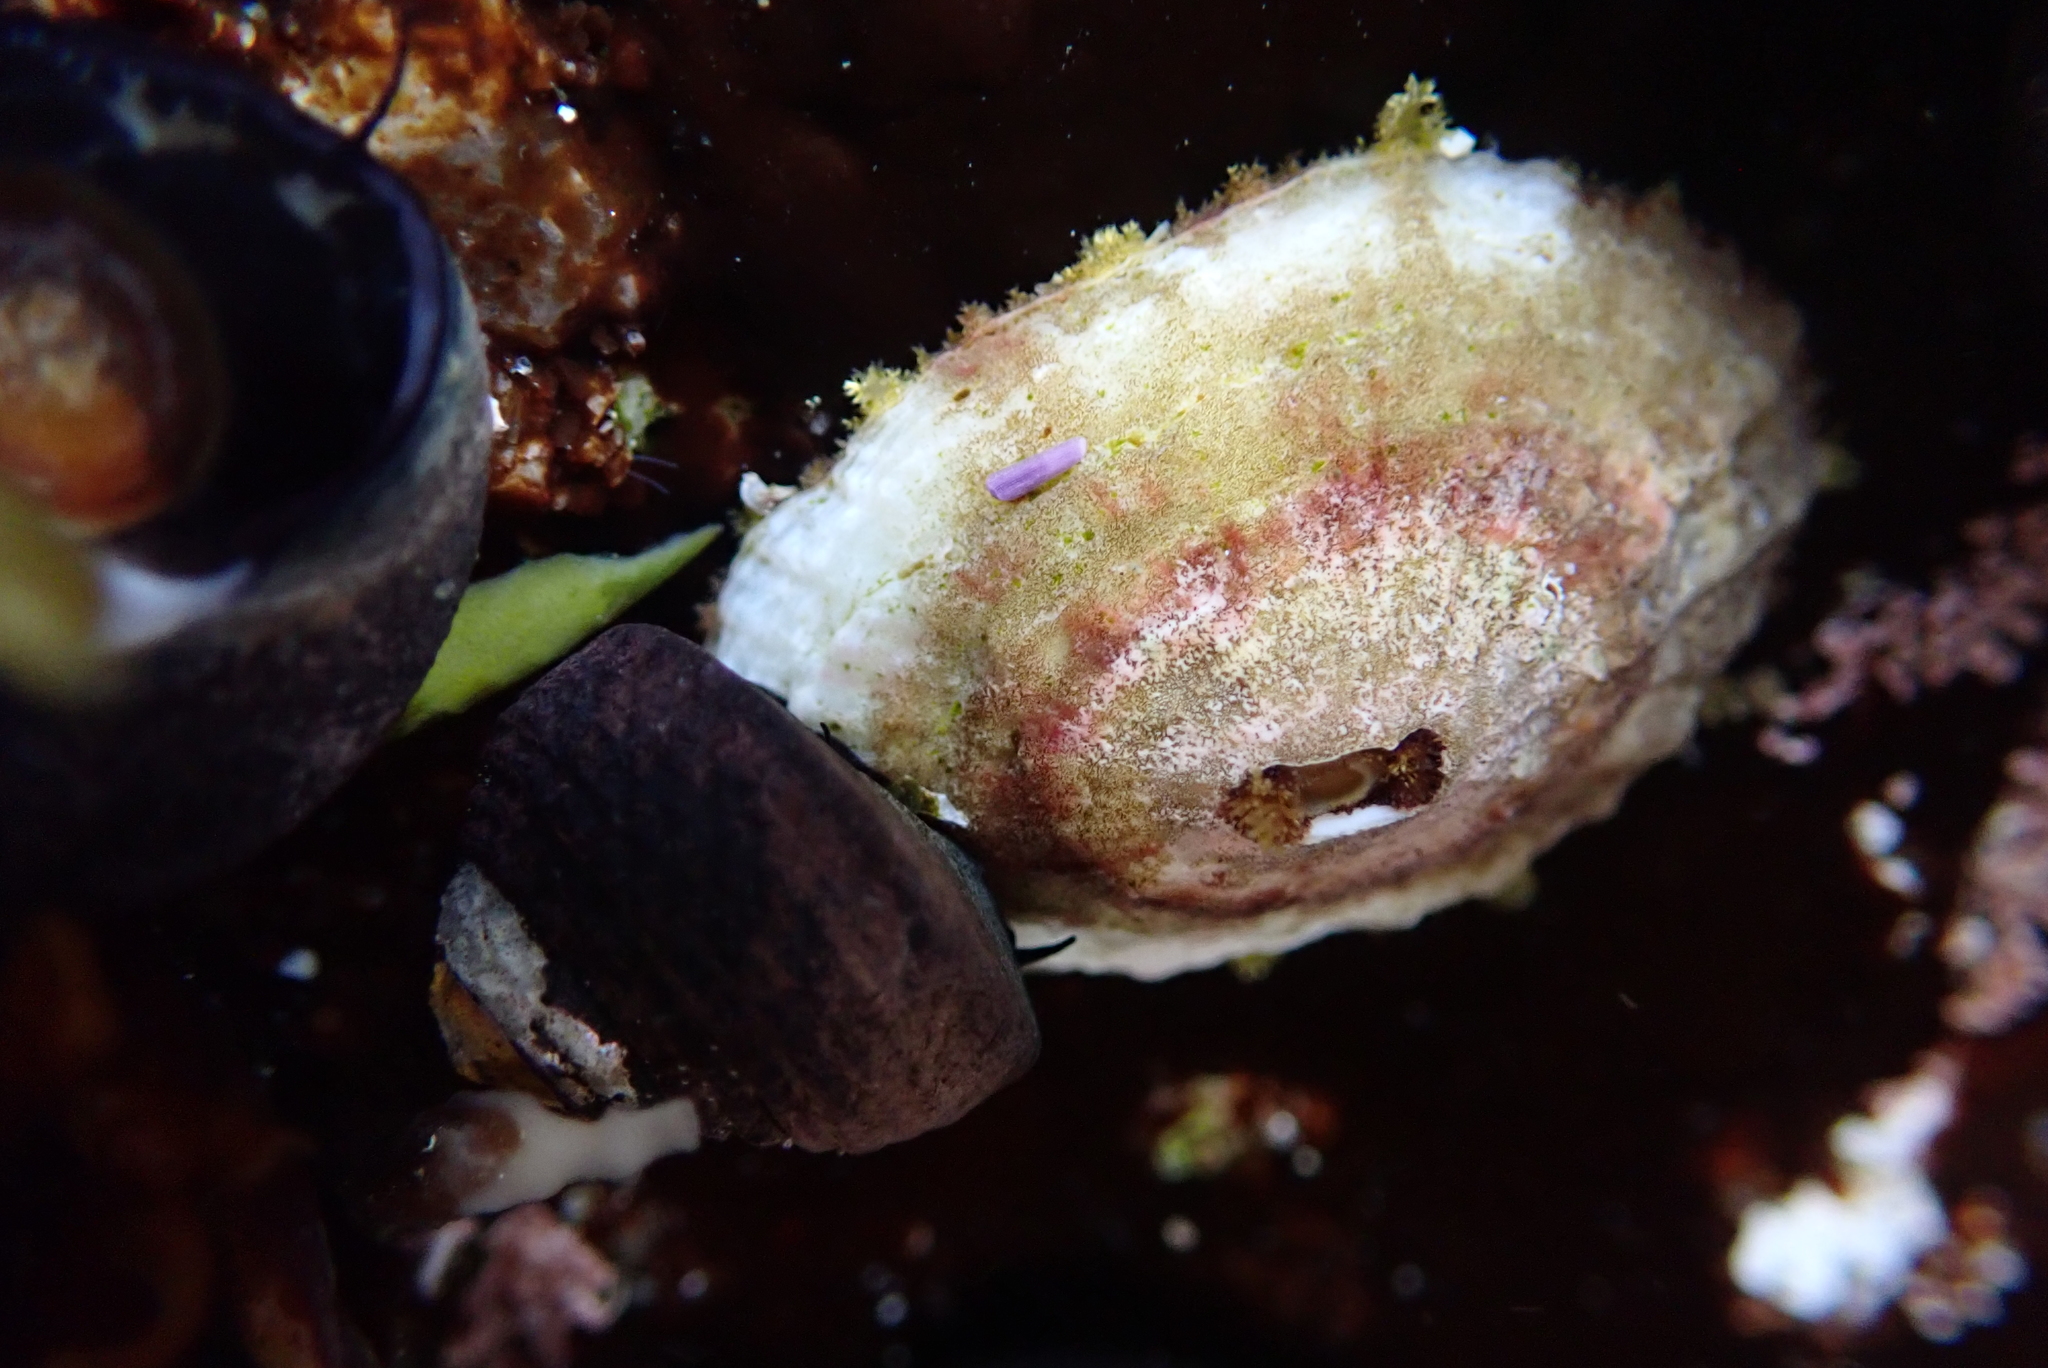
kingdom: Animalia
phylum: Mollusca
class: Gastropoda
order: Lepetellida
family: Fissurellidae
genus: Fissurella
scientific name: Fissurella volcano
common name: Volcano keyhole limpet
